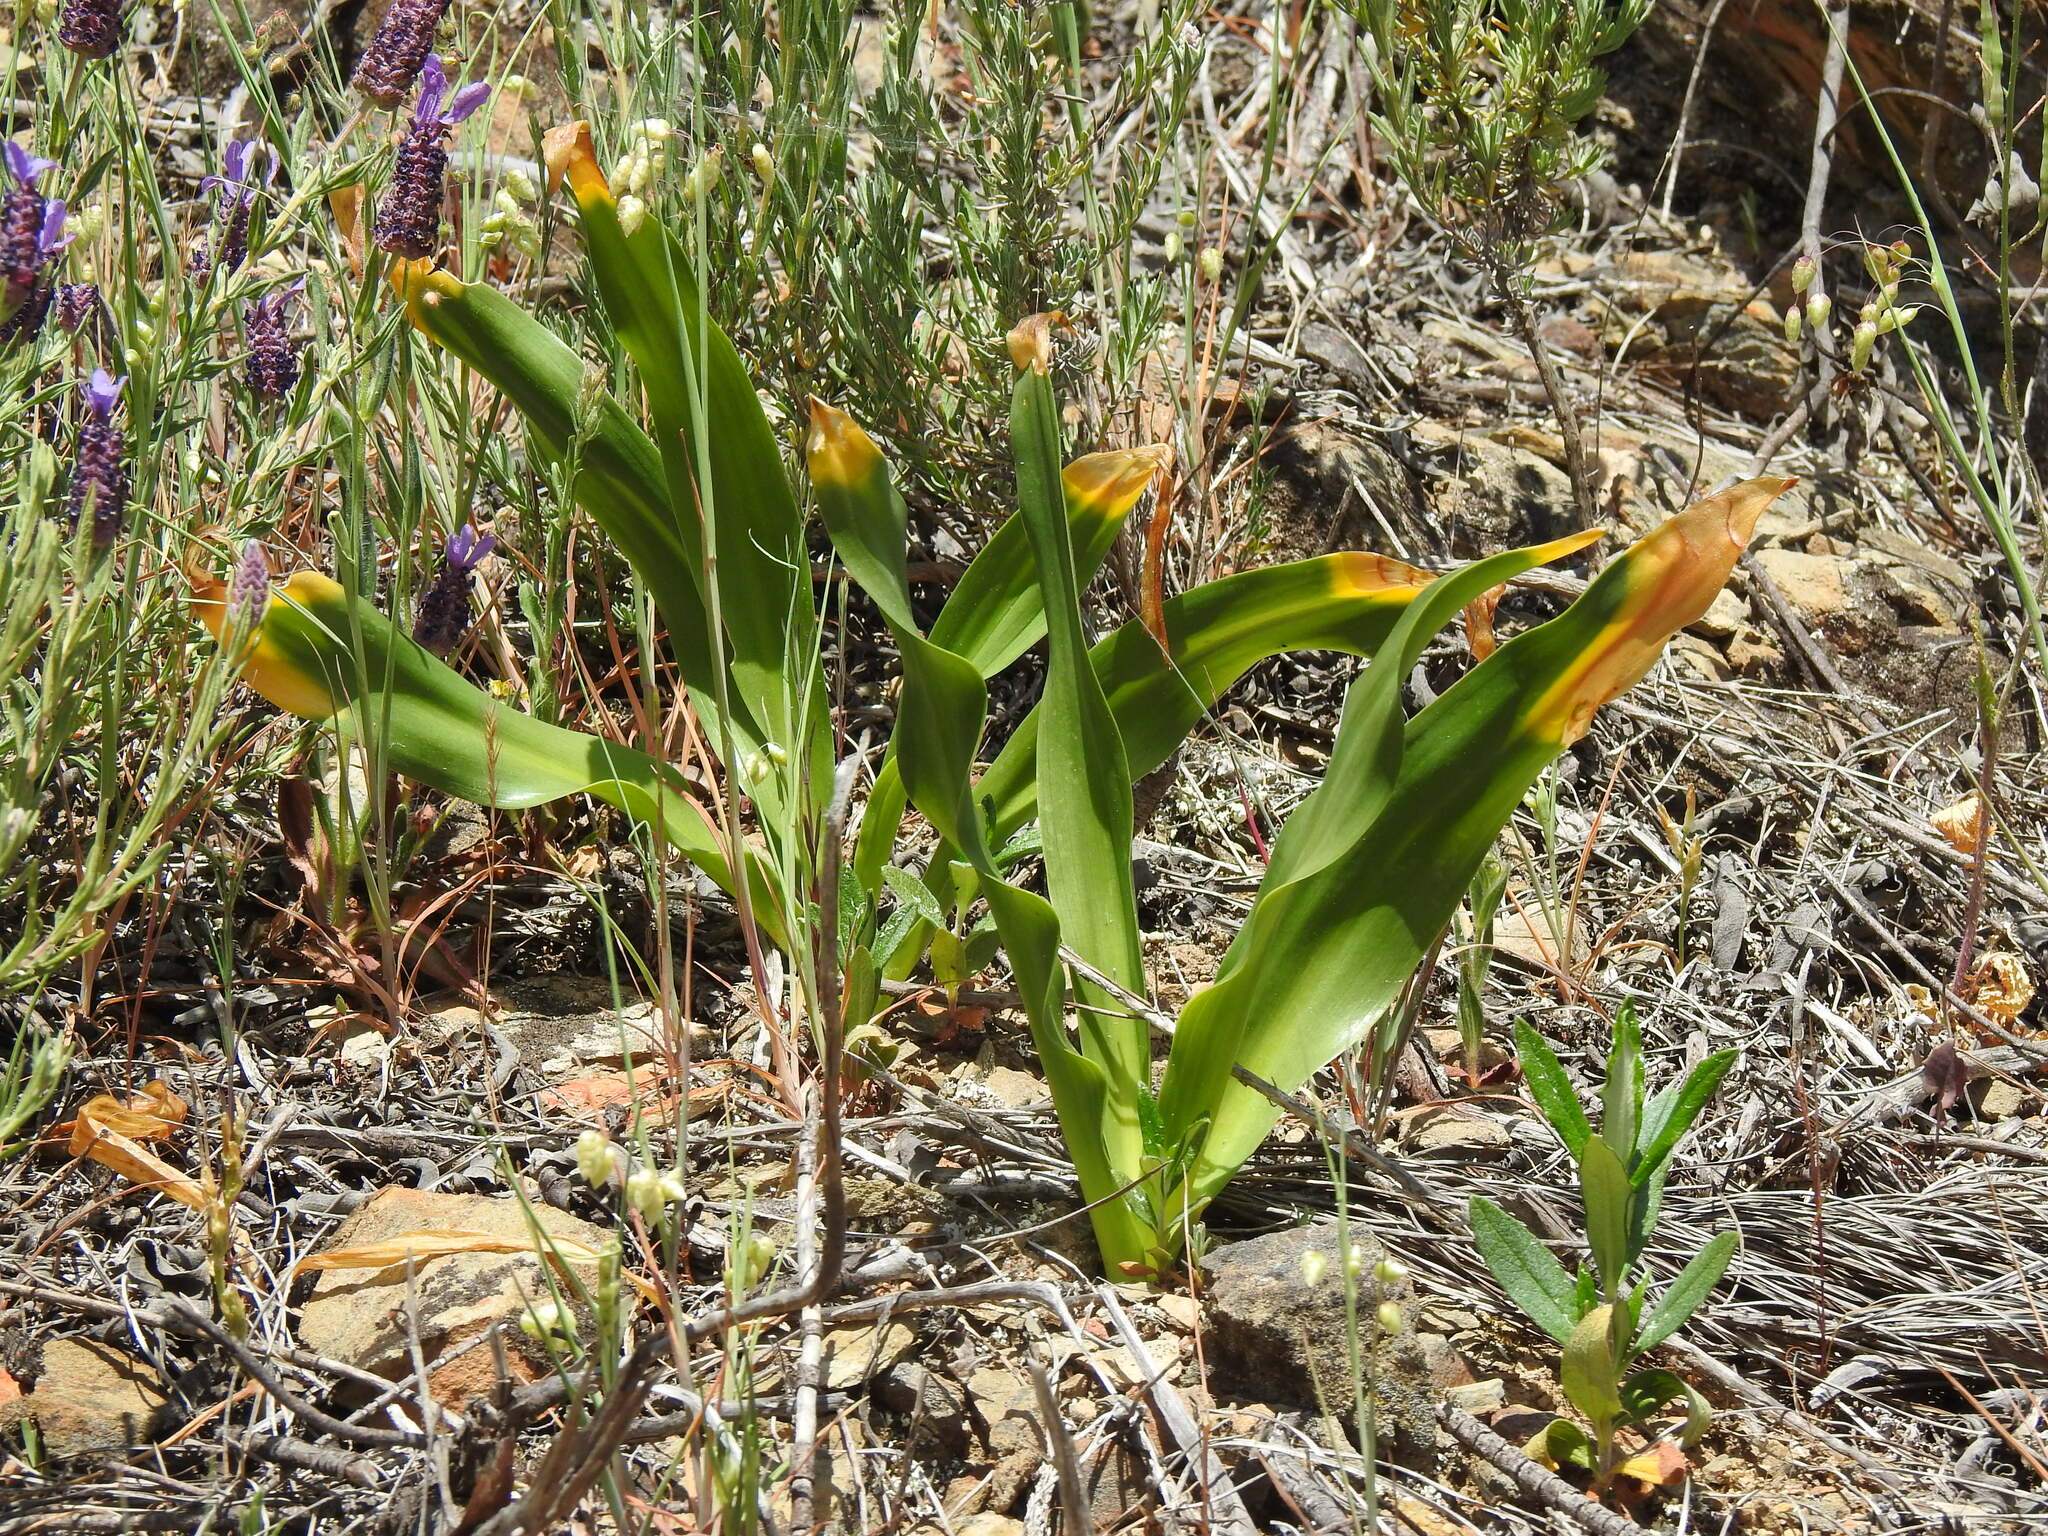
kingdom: Plantae
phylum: Tracheophyta
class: Liliopsida
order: Asparagales
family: Asparagaceae
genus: Drimia
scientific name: Drimia maritima
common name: Maritime squill
